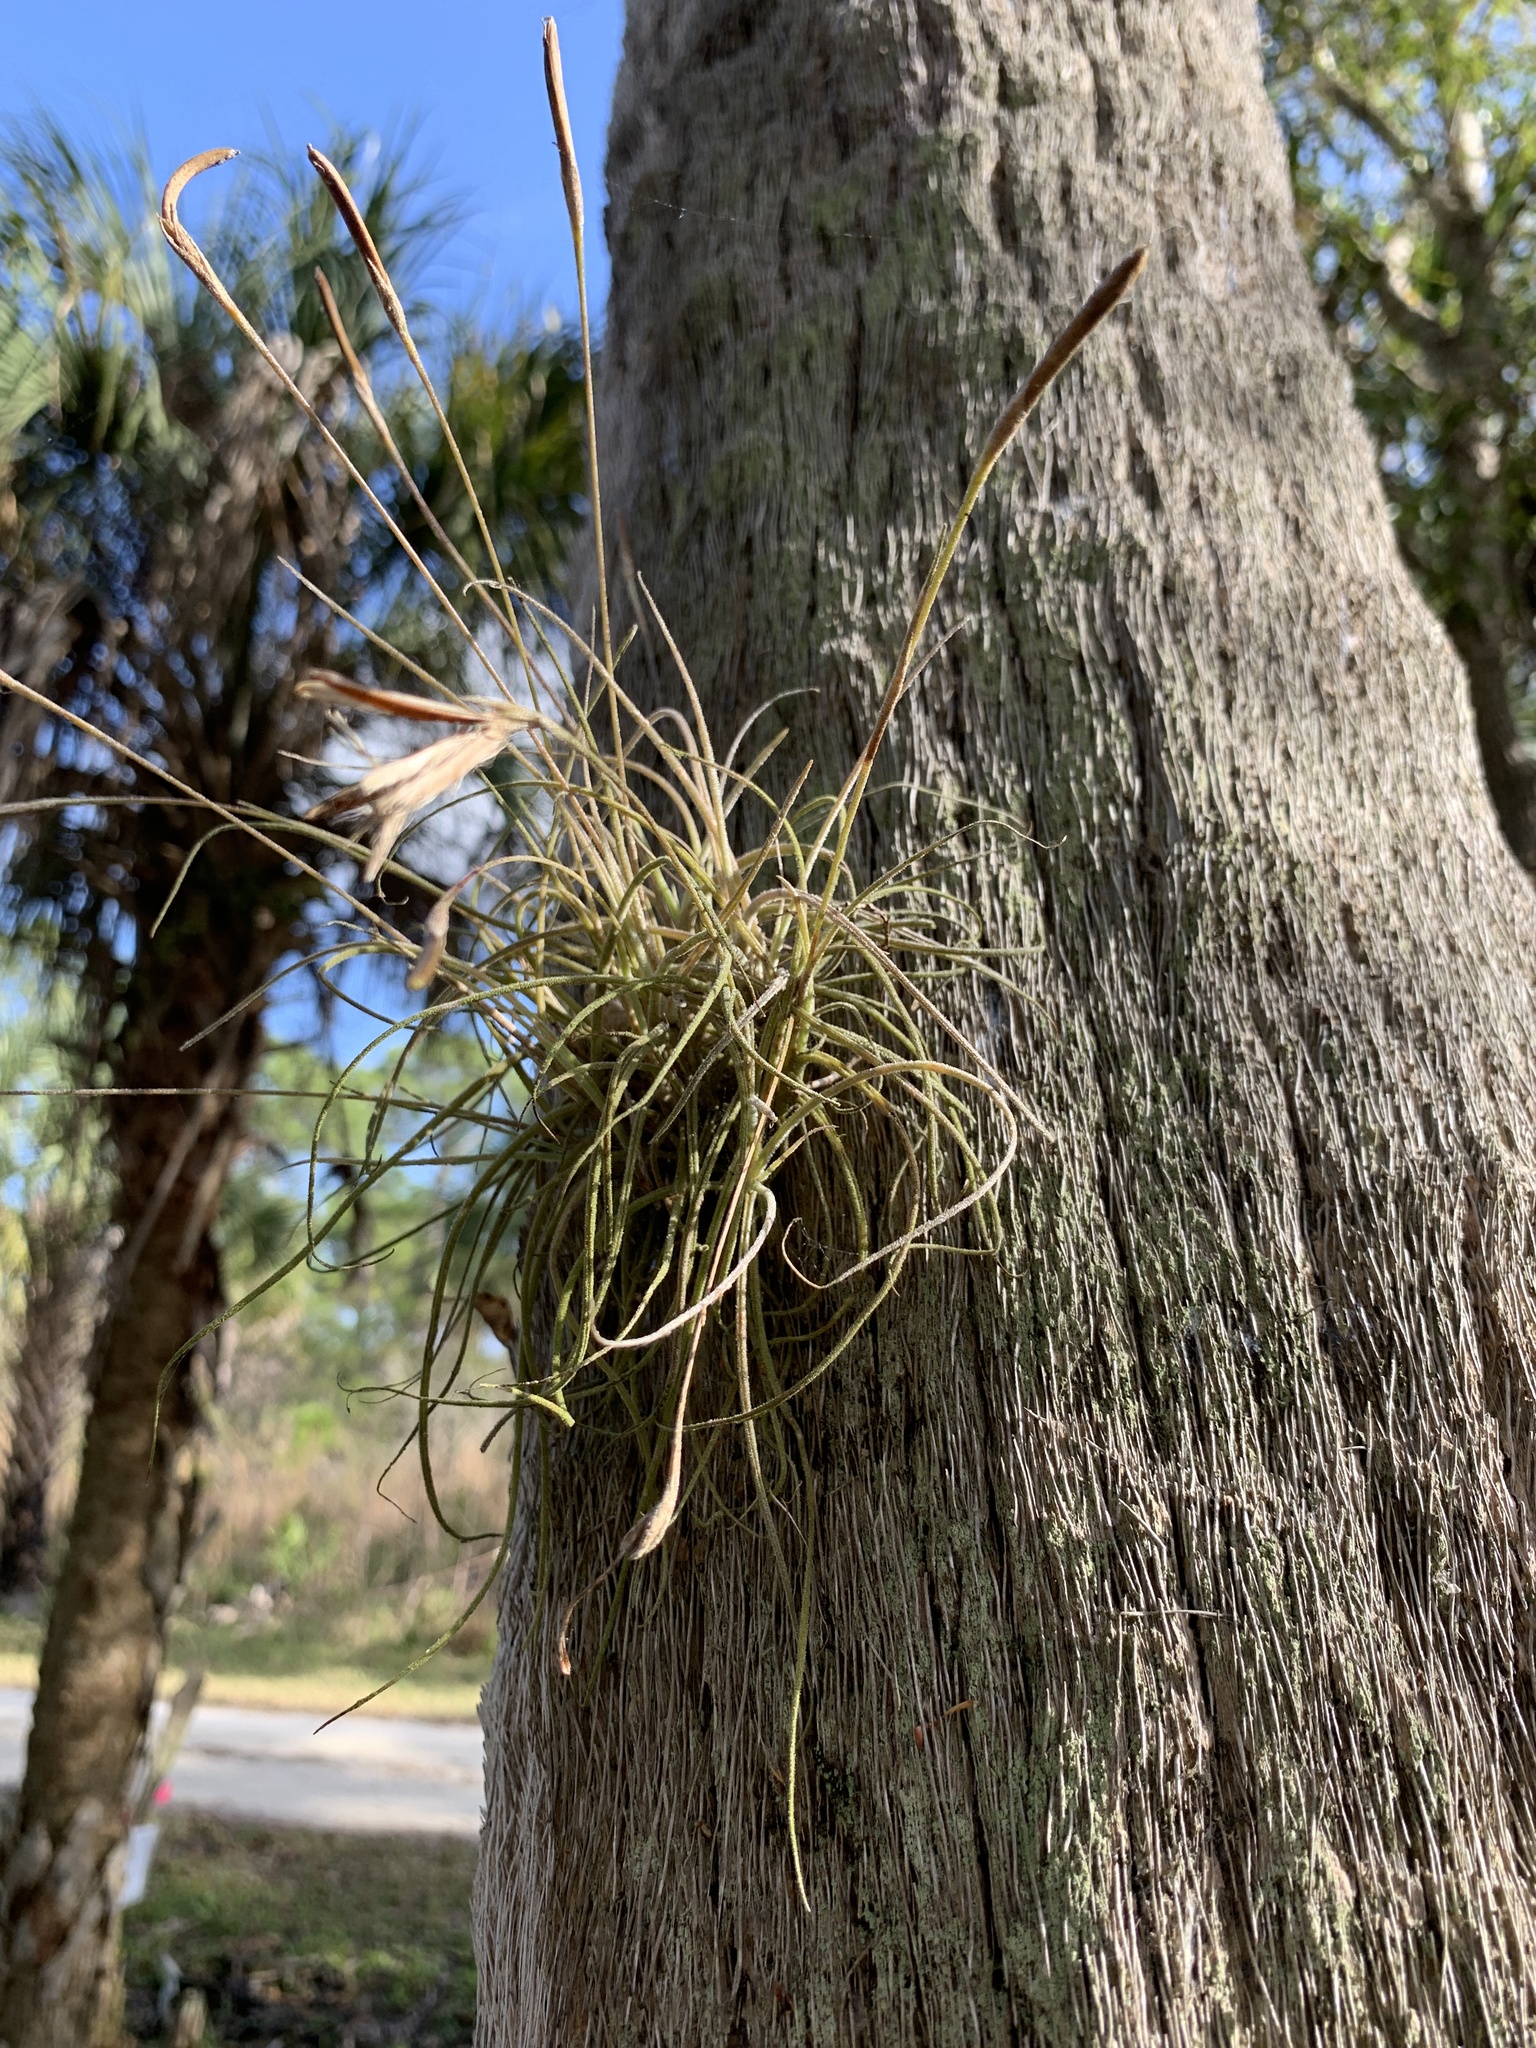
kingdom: Plantae
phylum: Tracheophyta
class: Liliopsida
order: Poales
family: Bromeliaceae
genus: Tillandsia
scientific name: Tillandsia recurvata
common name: Small ballmoss
